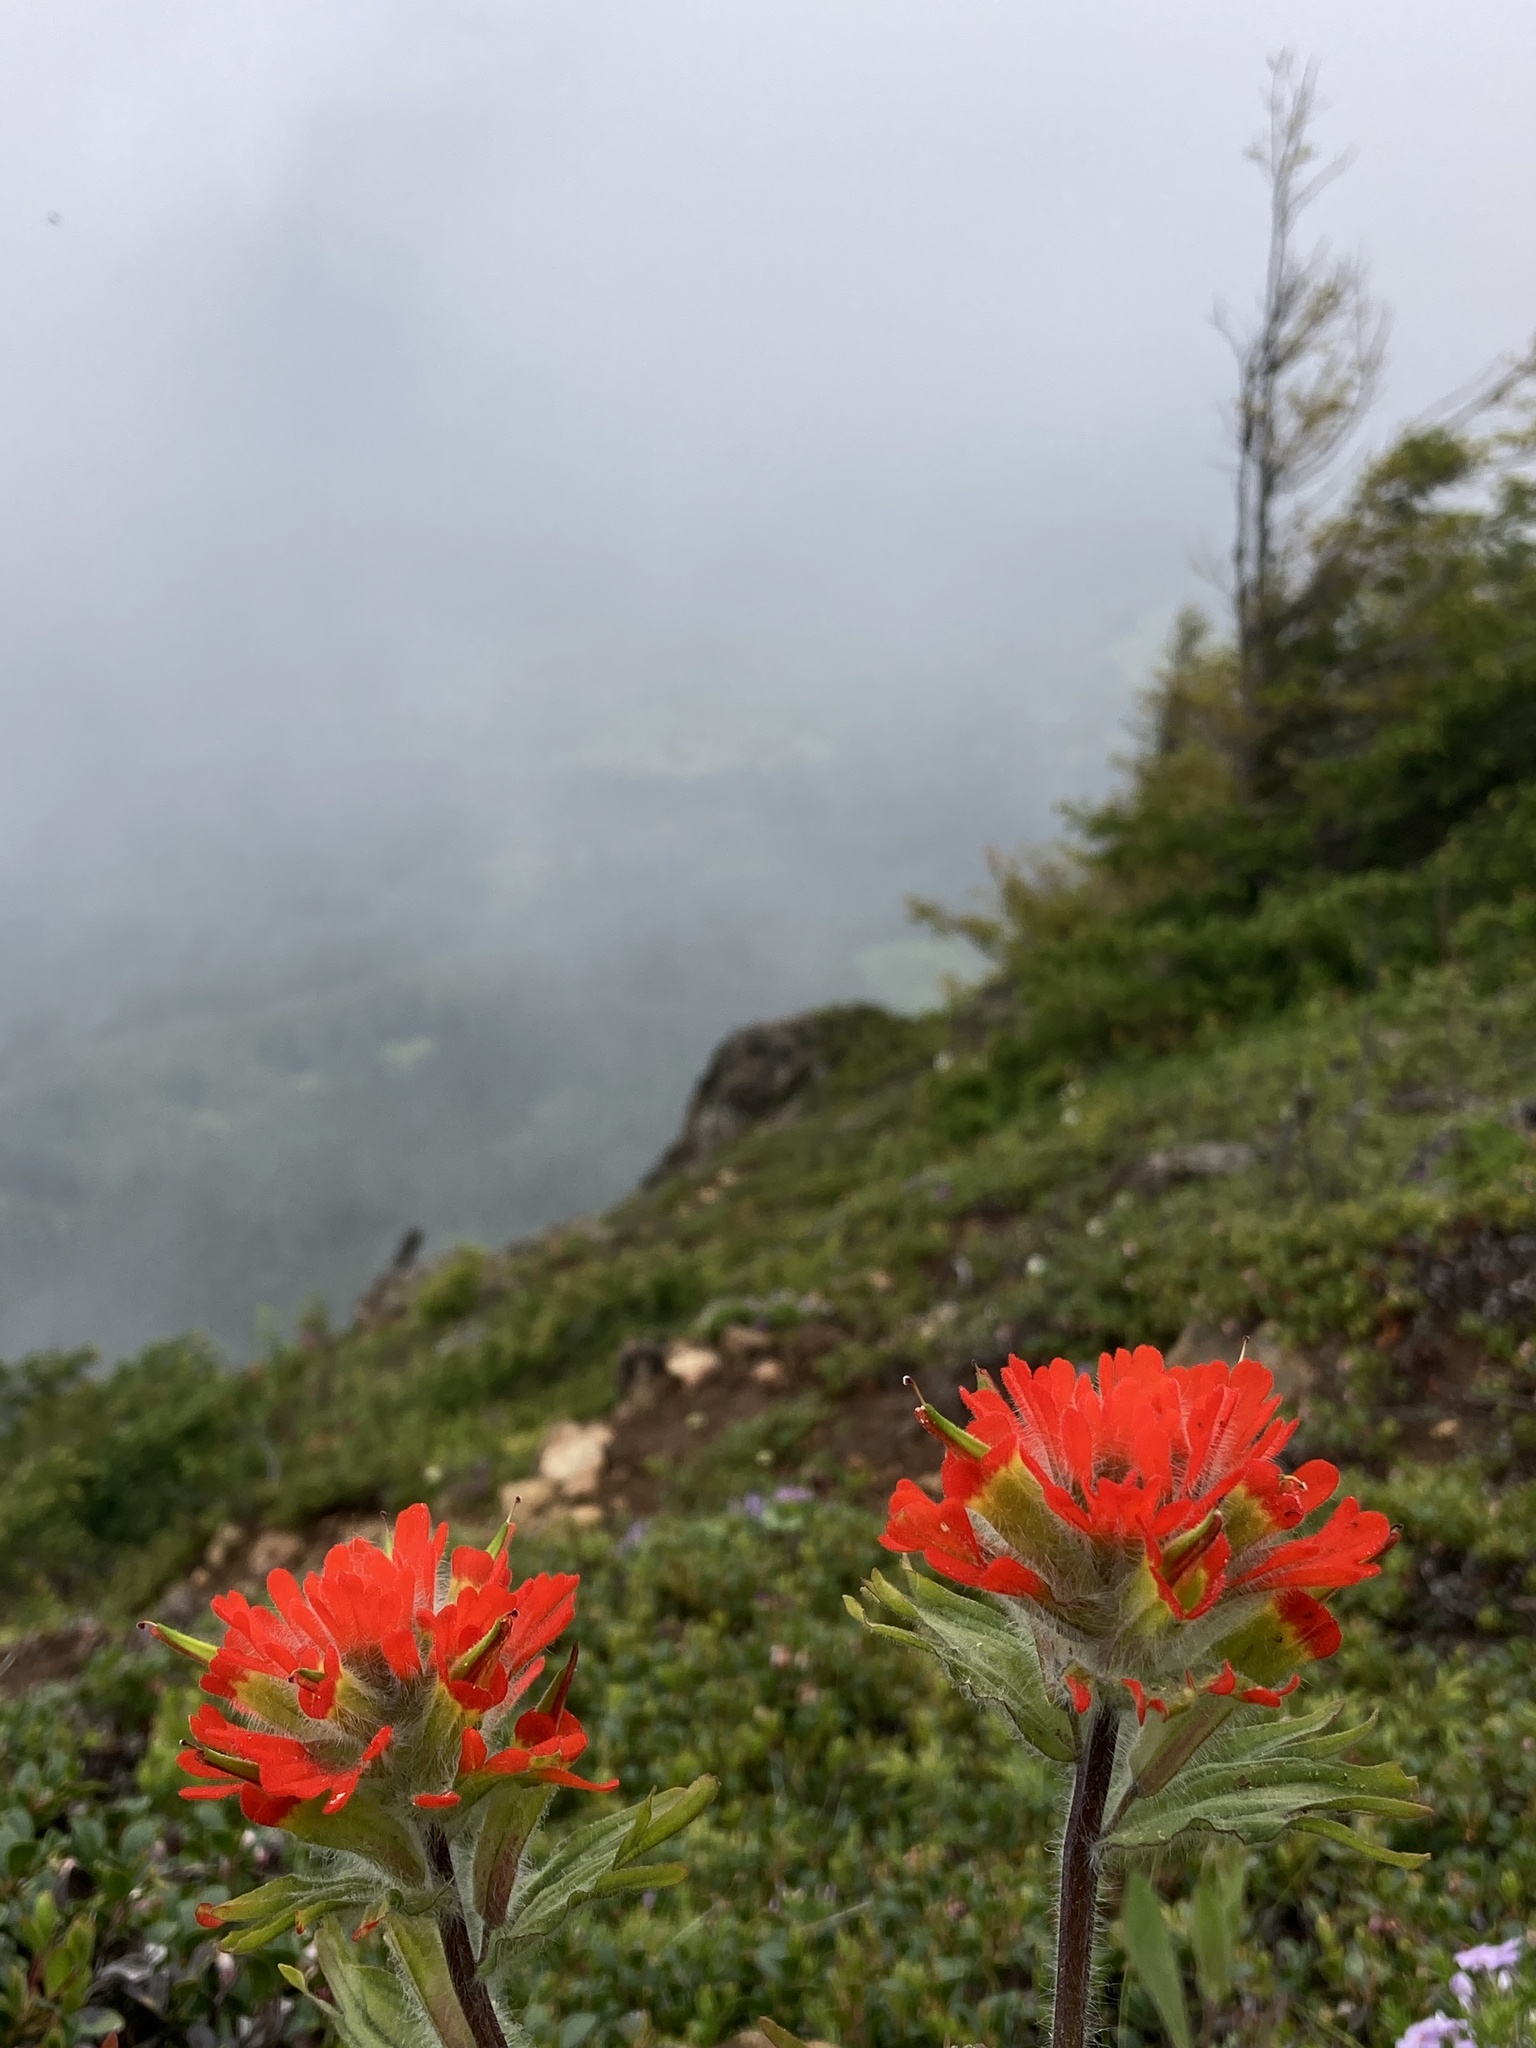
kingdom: Plantae
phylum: Tracheophyta
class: Magnoliopsida
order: Lamiales
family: Orobanchaceae
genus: Castilleja
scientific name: Castilleja hispida
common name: Bristly paintbrush
